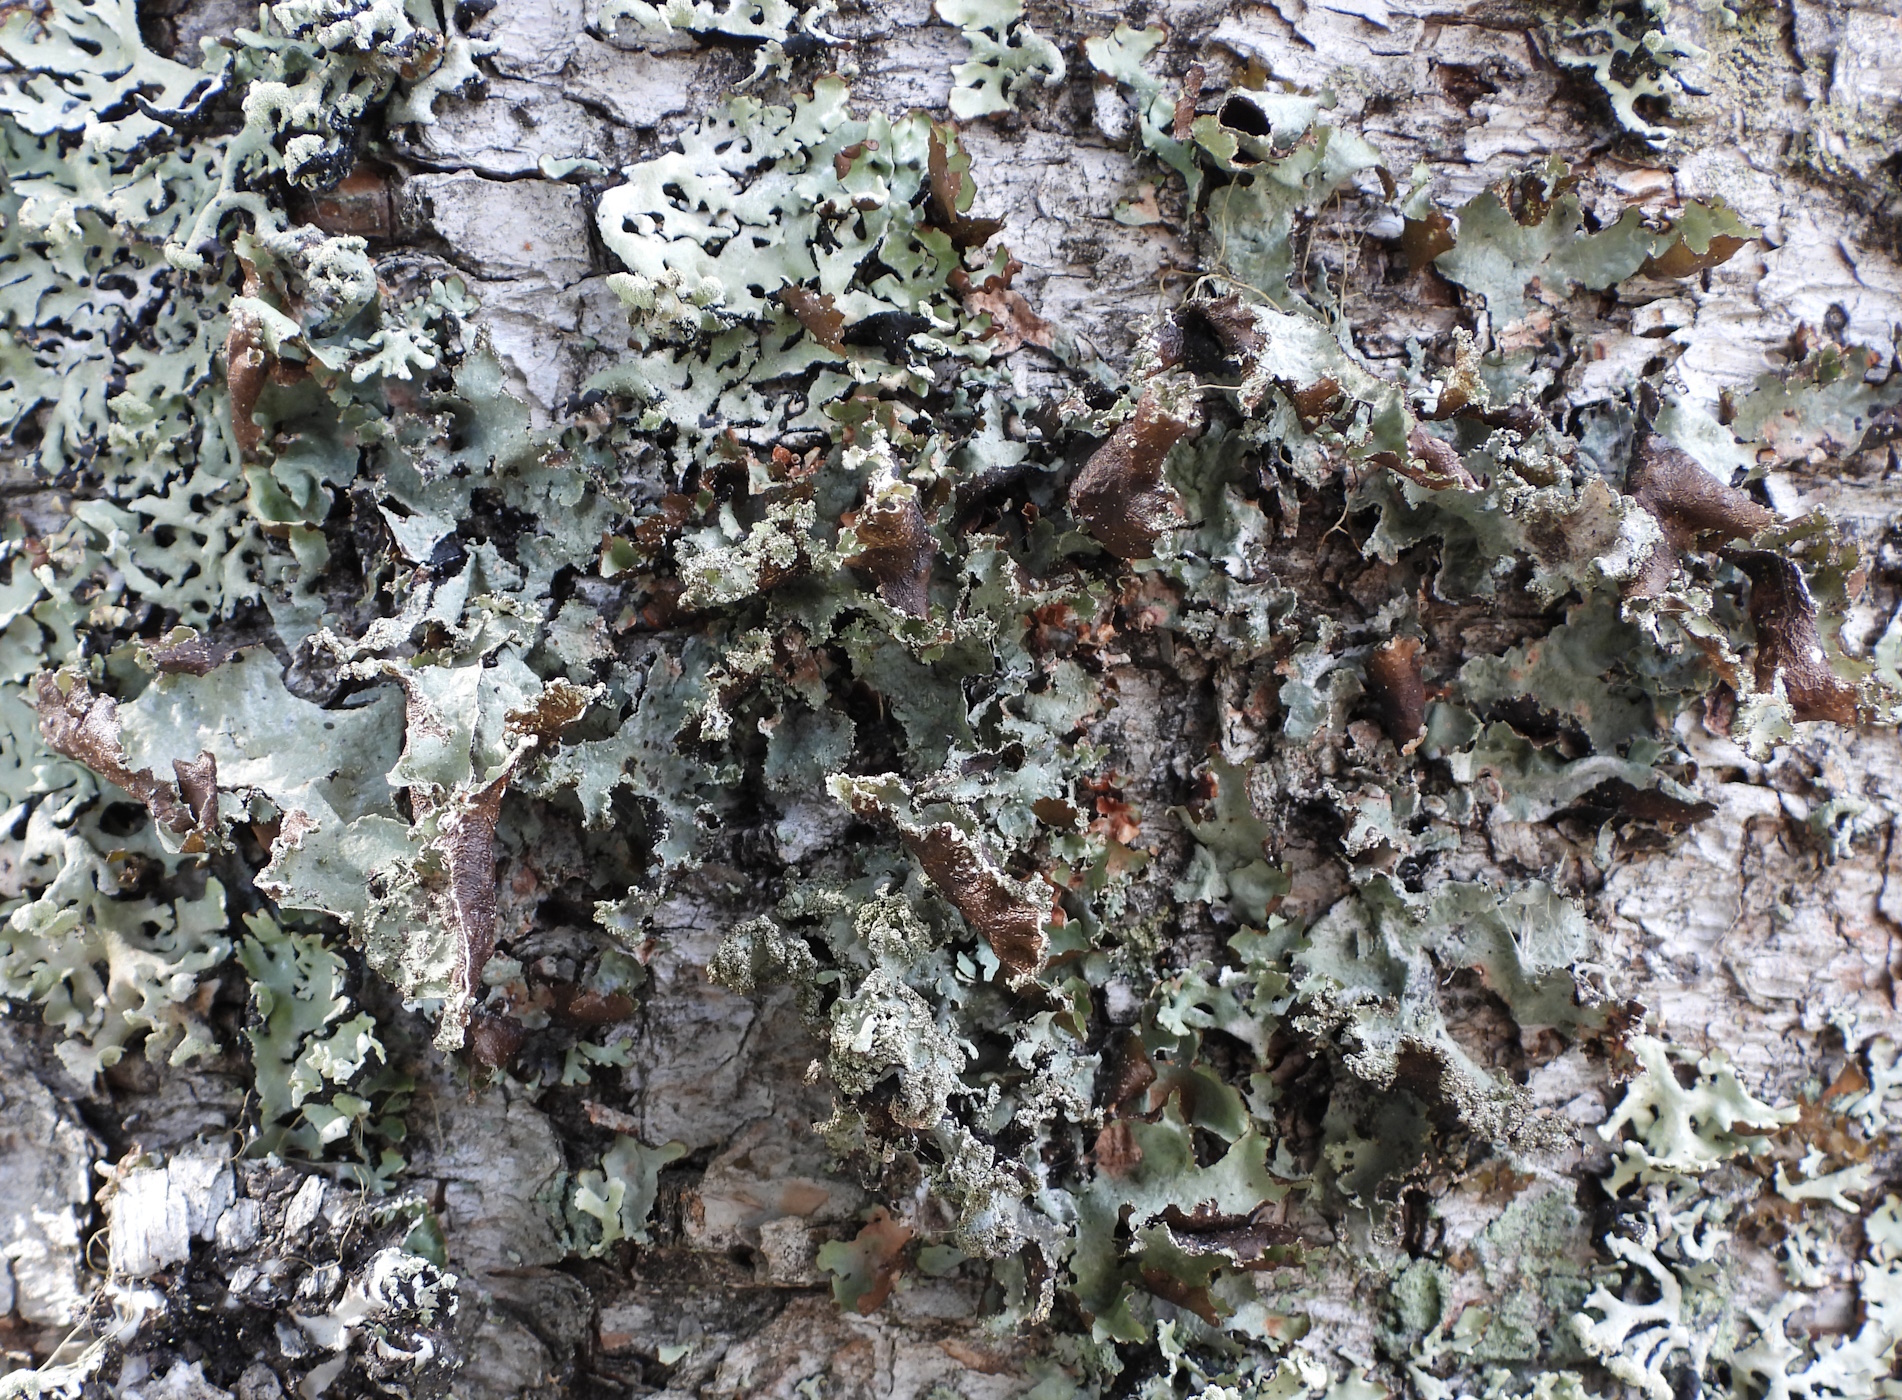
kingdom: Fungi
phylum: Ascomycota
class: Lecanoromycetes
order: Lecanorales
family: Parmeliaceae
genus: Platismatia
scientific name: Platismatia glauca
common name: Varied rag lichen
